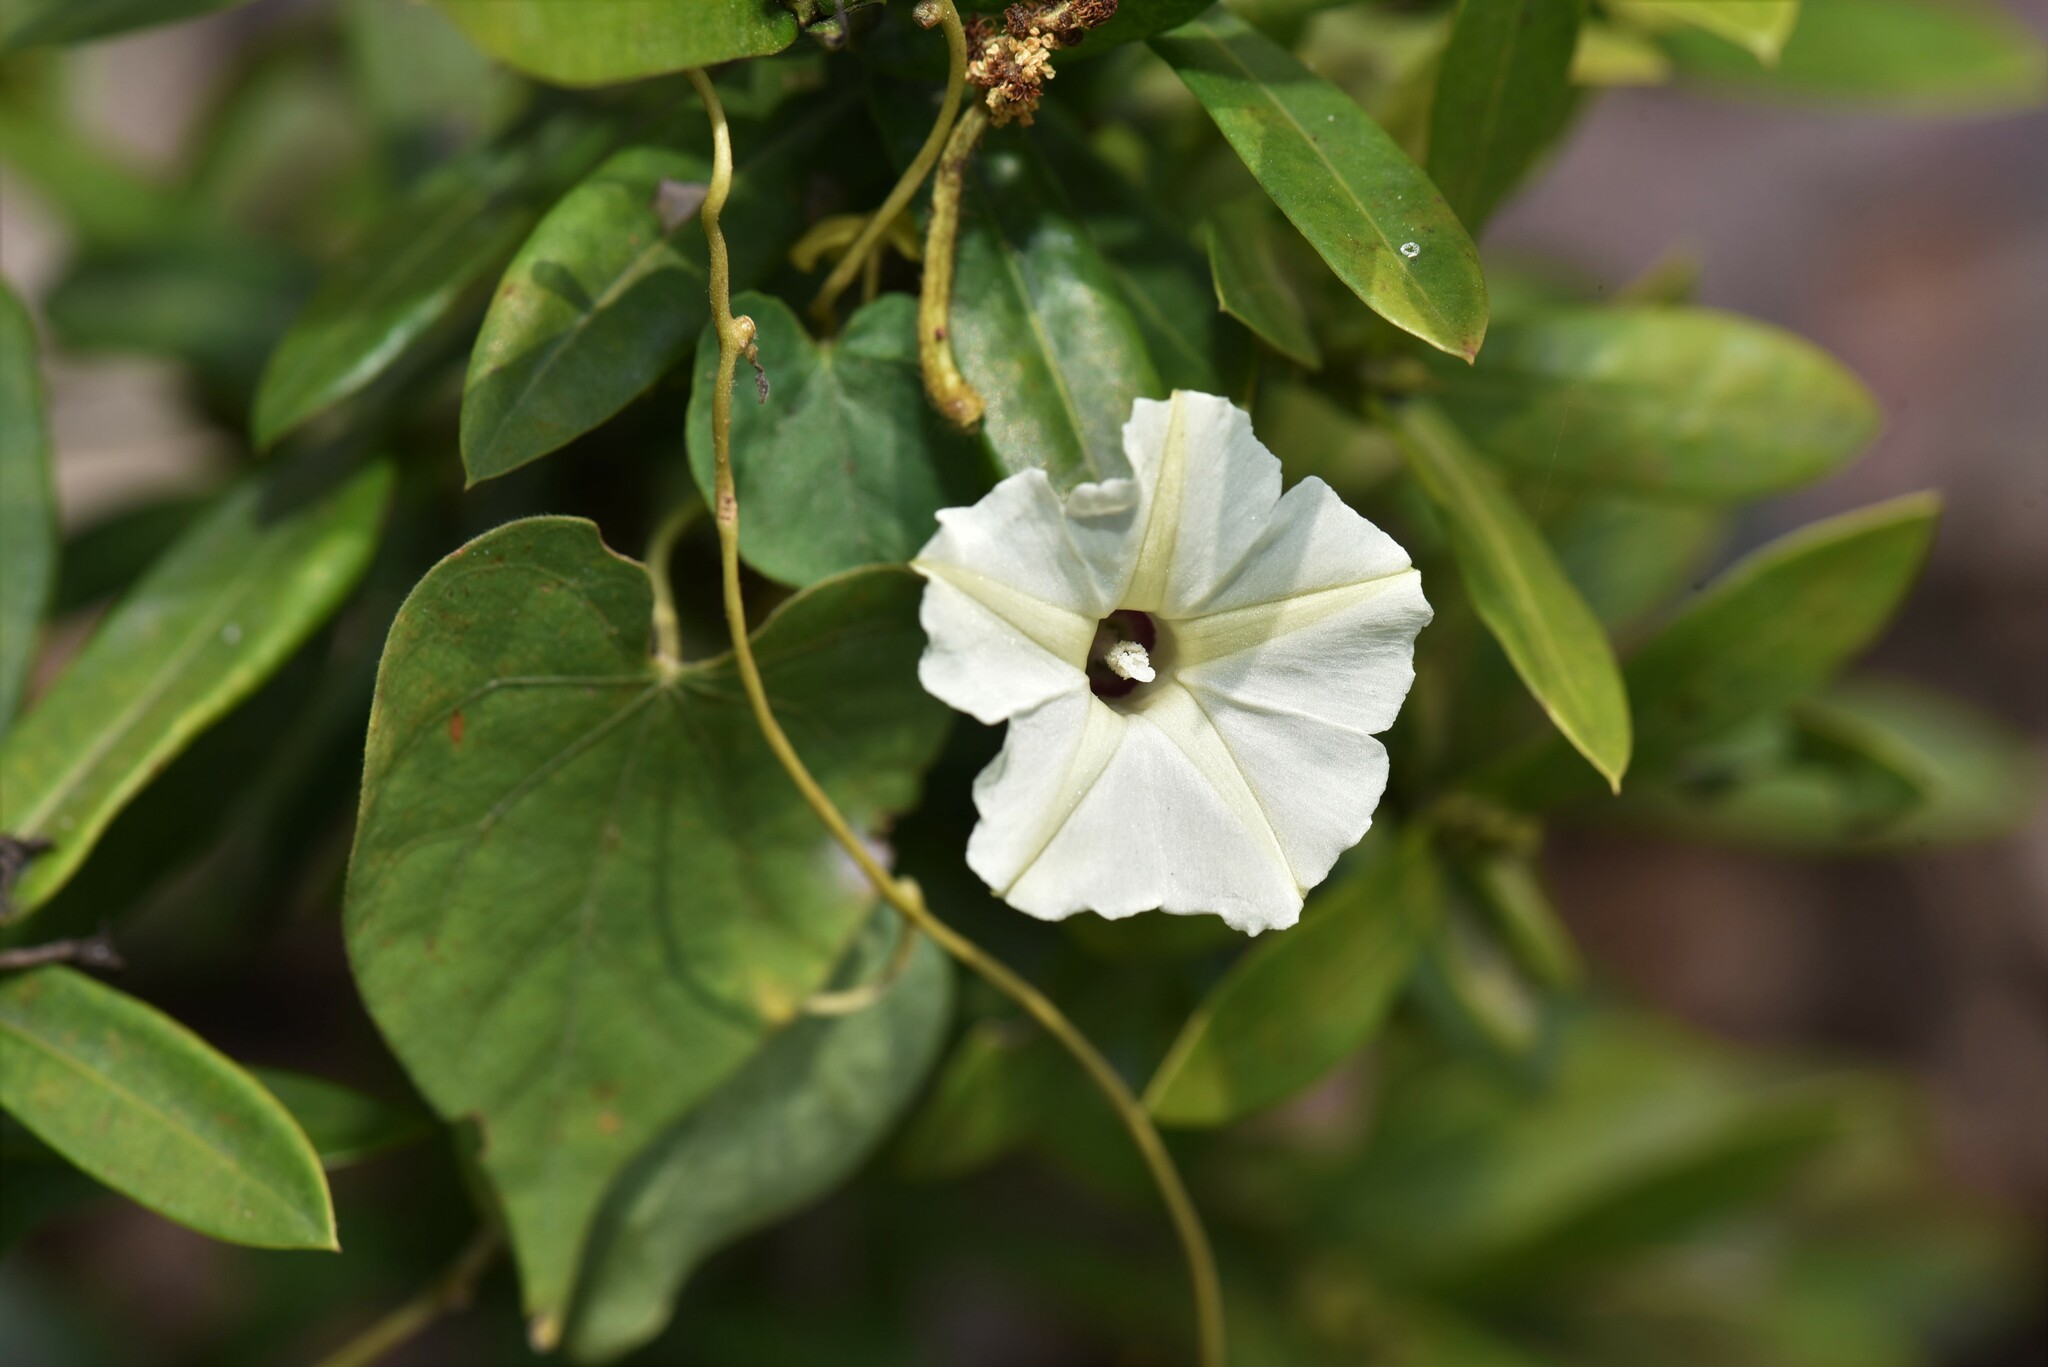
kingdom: Plantae
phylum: Tracheophyta
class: Magnoliopsida
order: Solanales
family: Convolvulaceae
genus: Ipomoea
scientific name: Ipomoea obscura
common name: Obscure morning-glory
